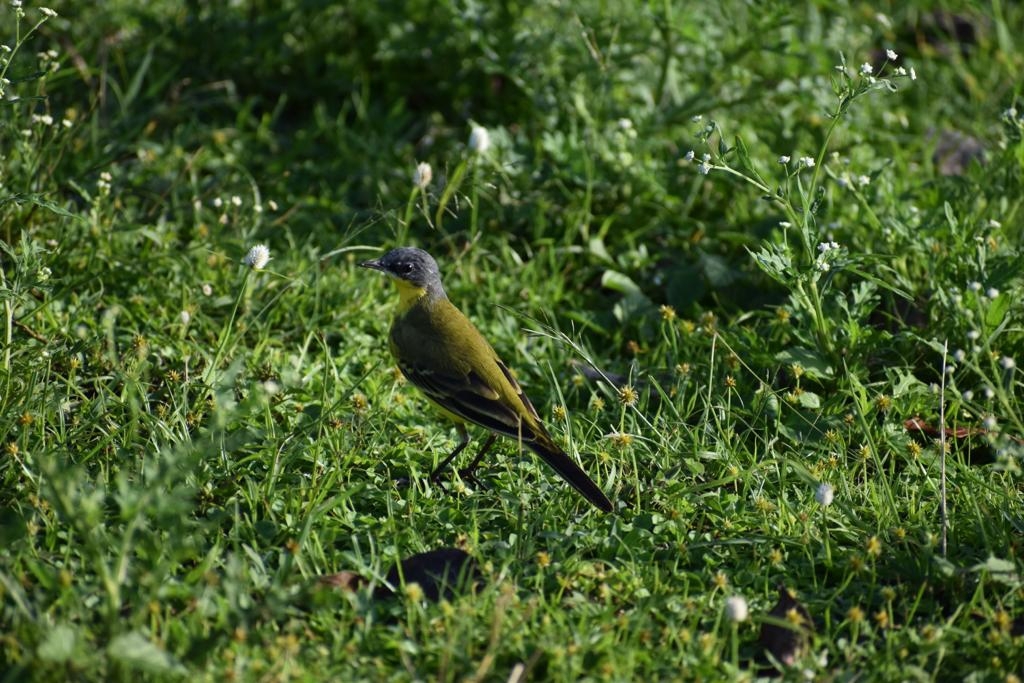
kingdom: Animalia
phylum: Chordata
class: Aves
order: Passeriformes
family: Motacillidae
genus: Motacilla
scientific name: Motacilla flava
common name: Western yellow wagtail
